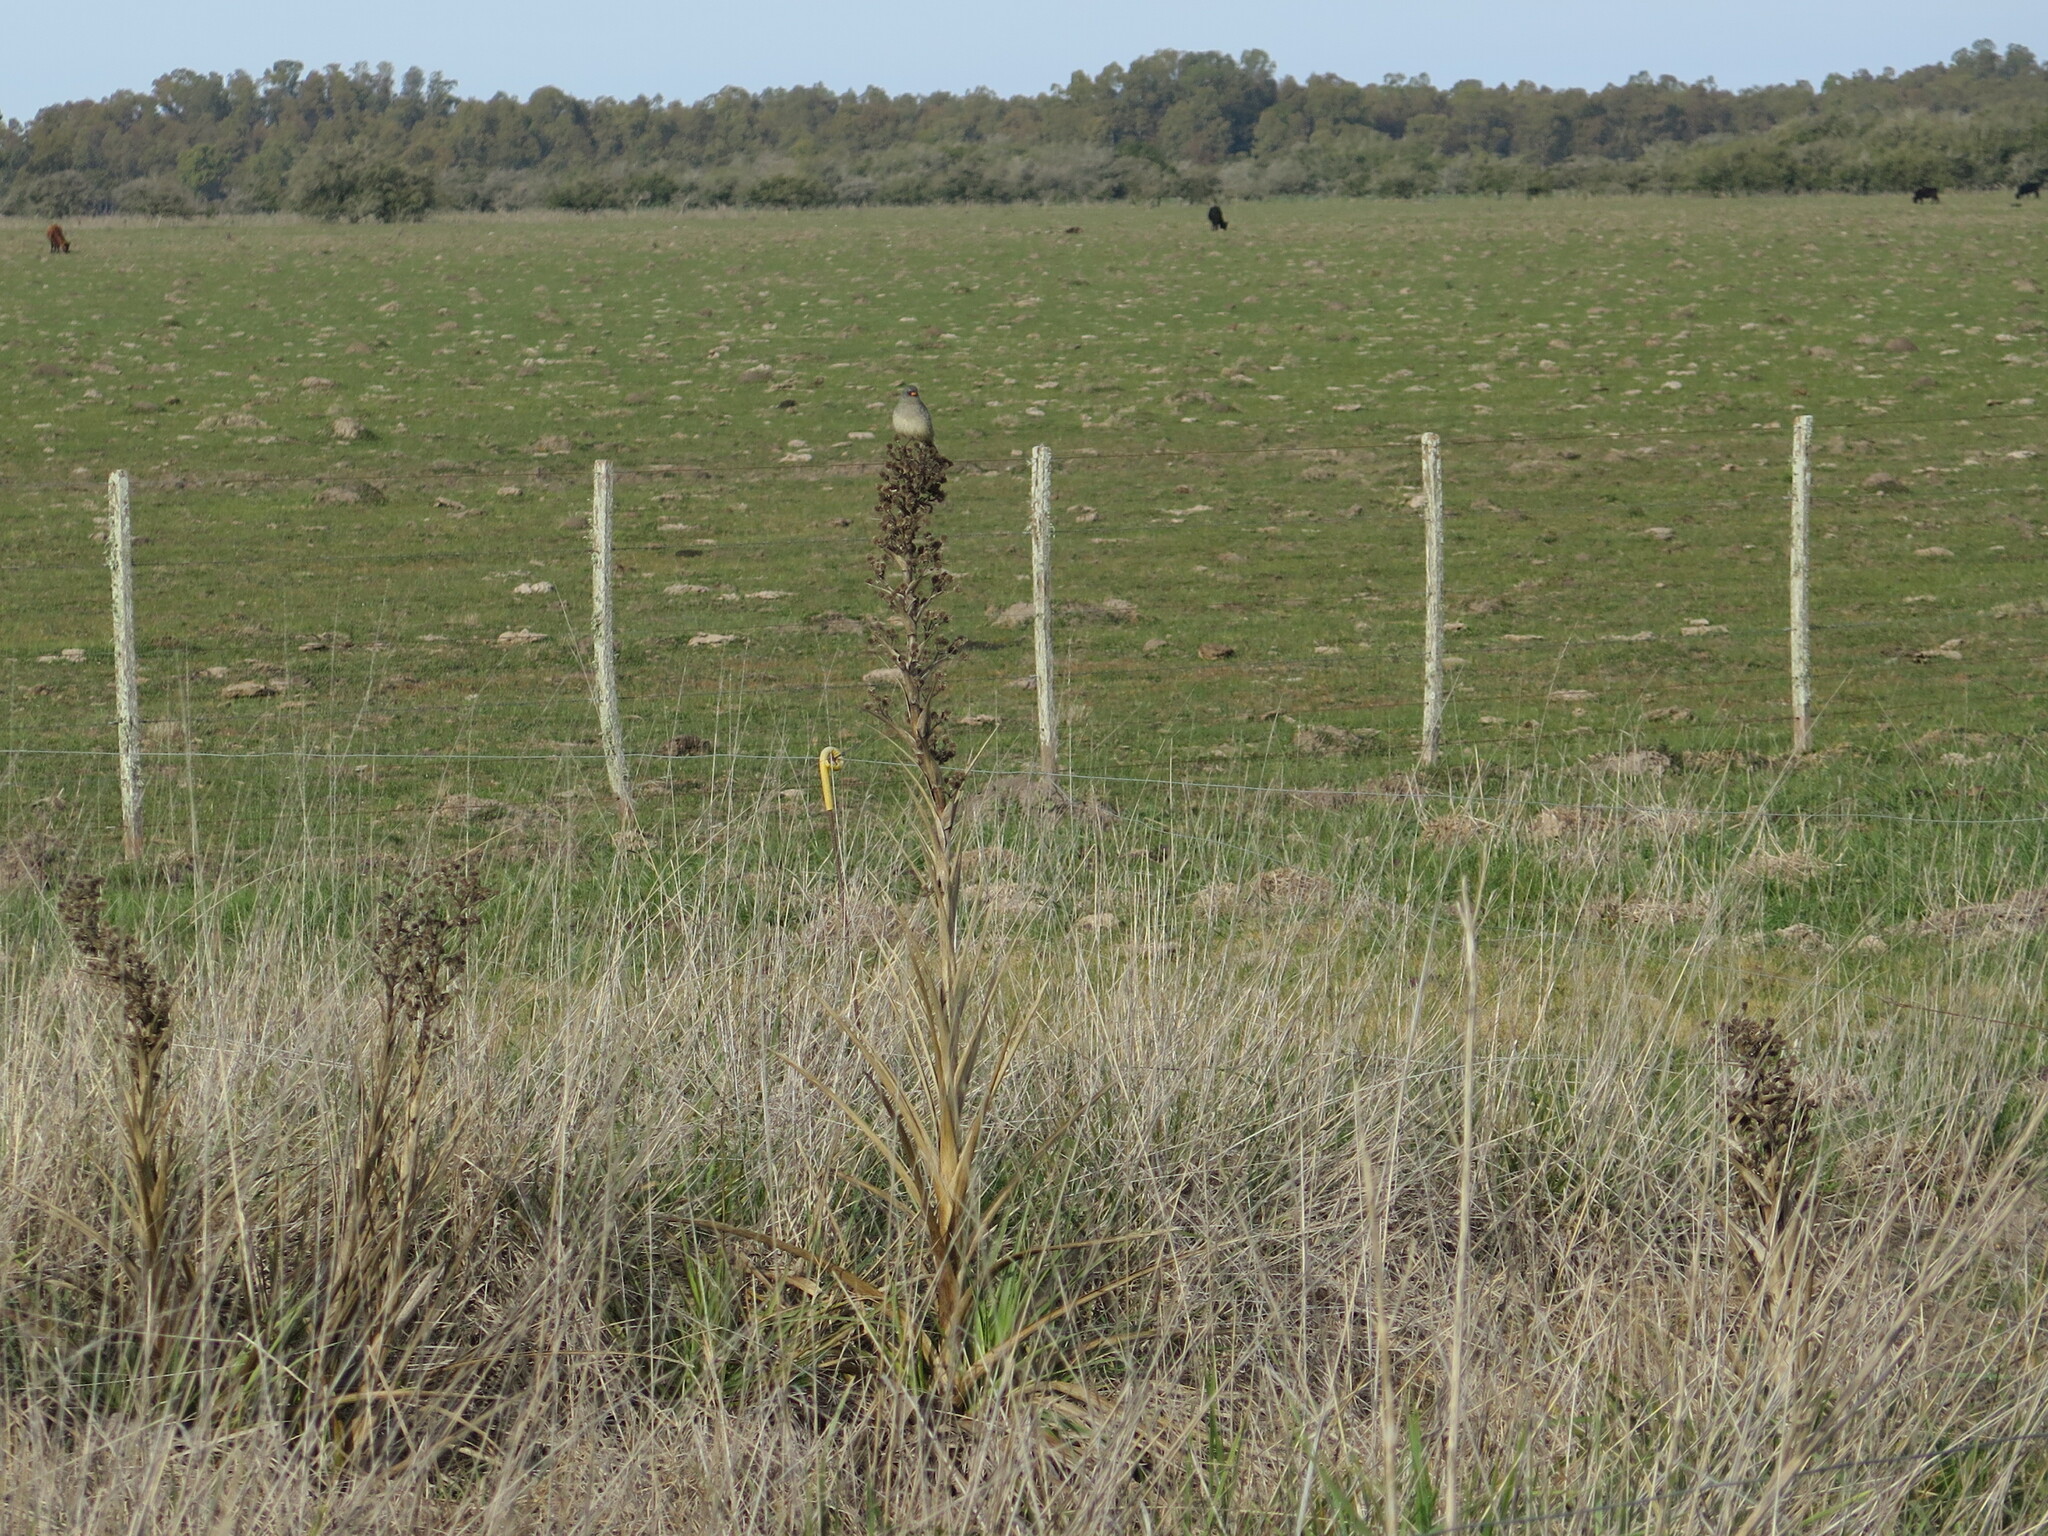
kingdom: Animalia
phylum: Chordata
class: Aves
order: Passeriformes
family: Thraupidae
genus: Embernagra
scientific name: Embernagra platensis
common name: Pampa finch
